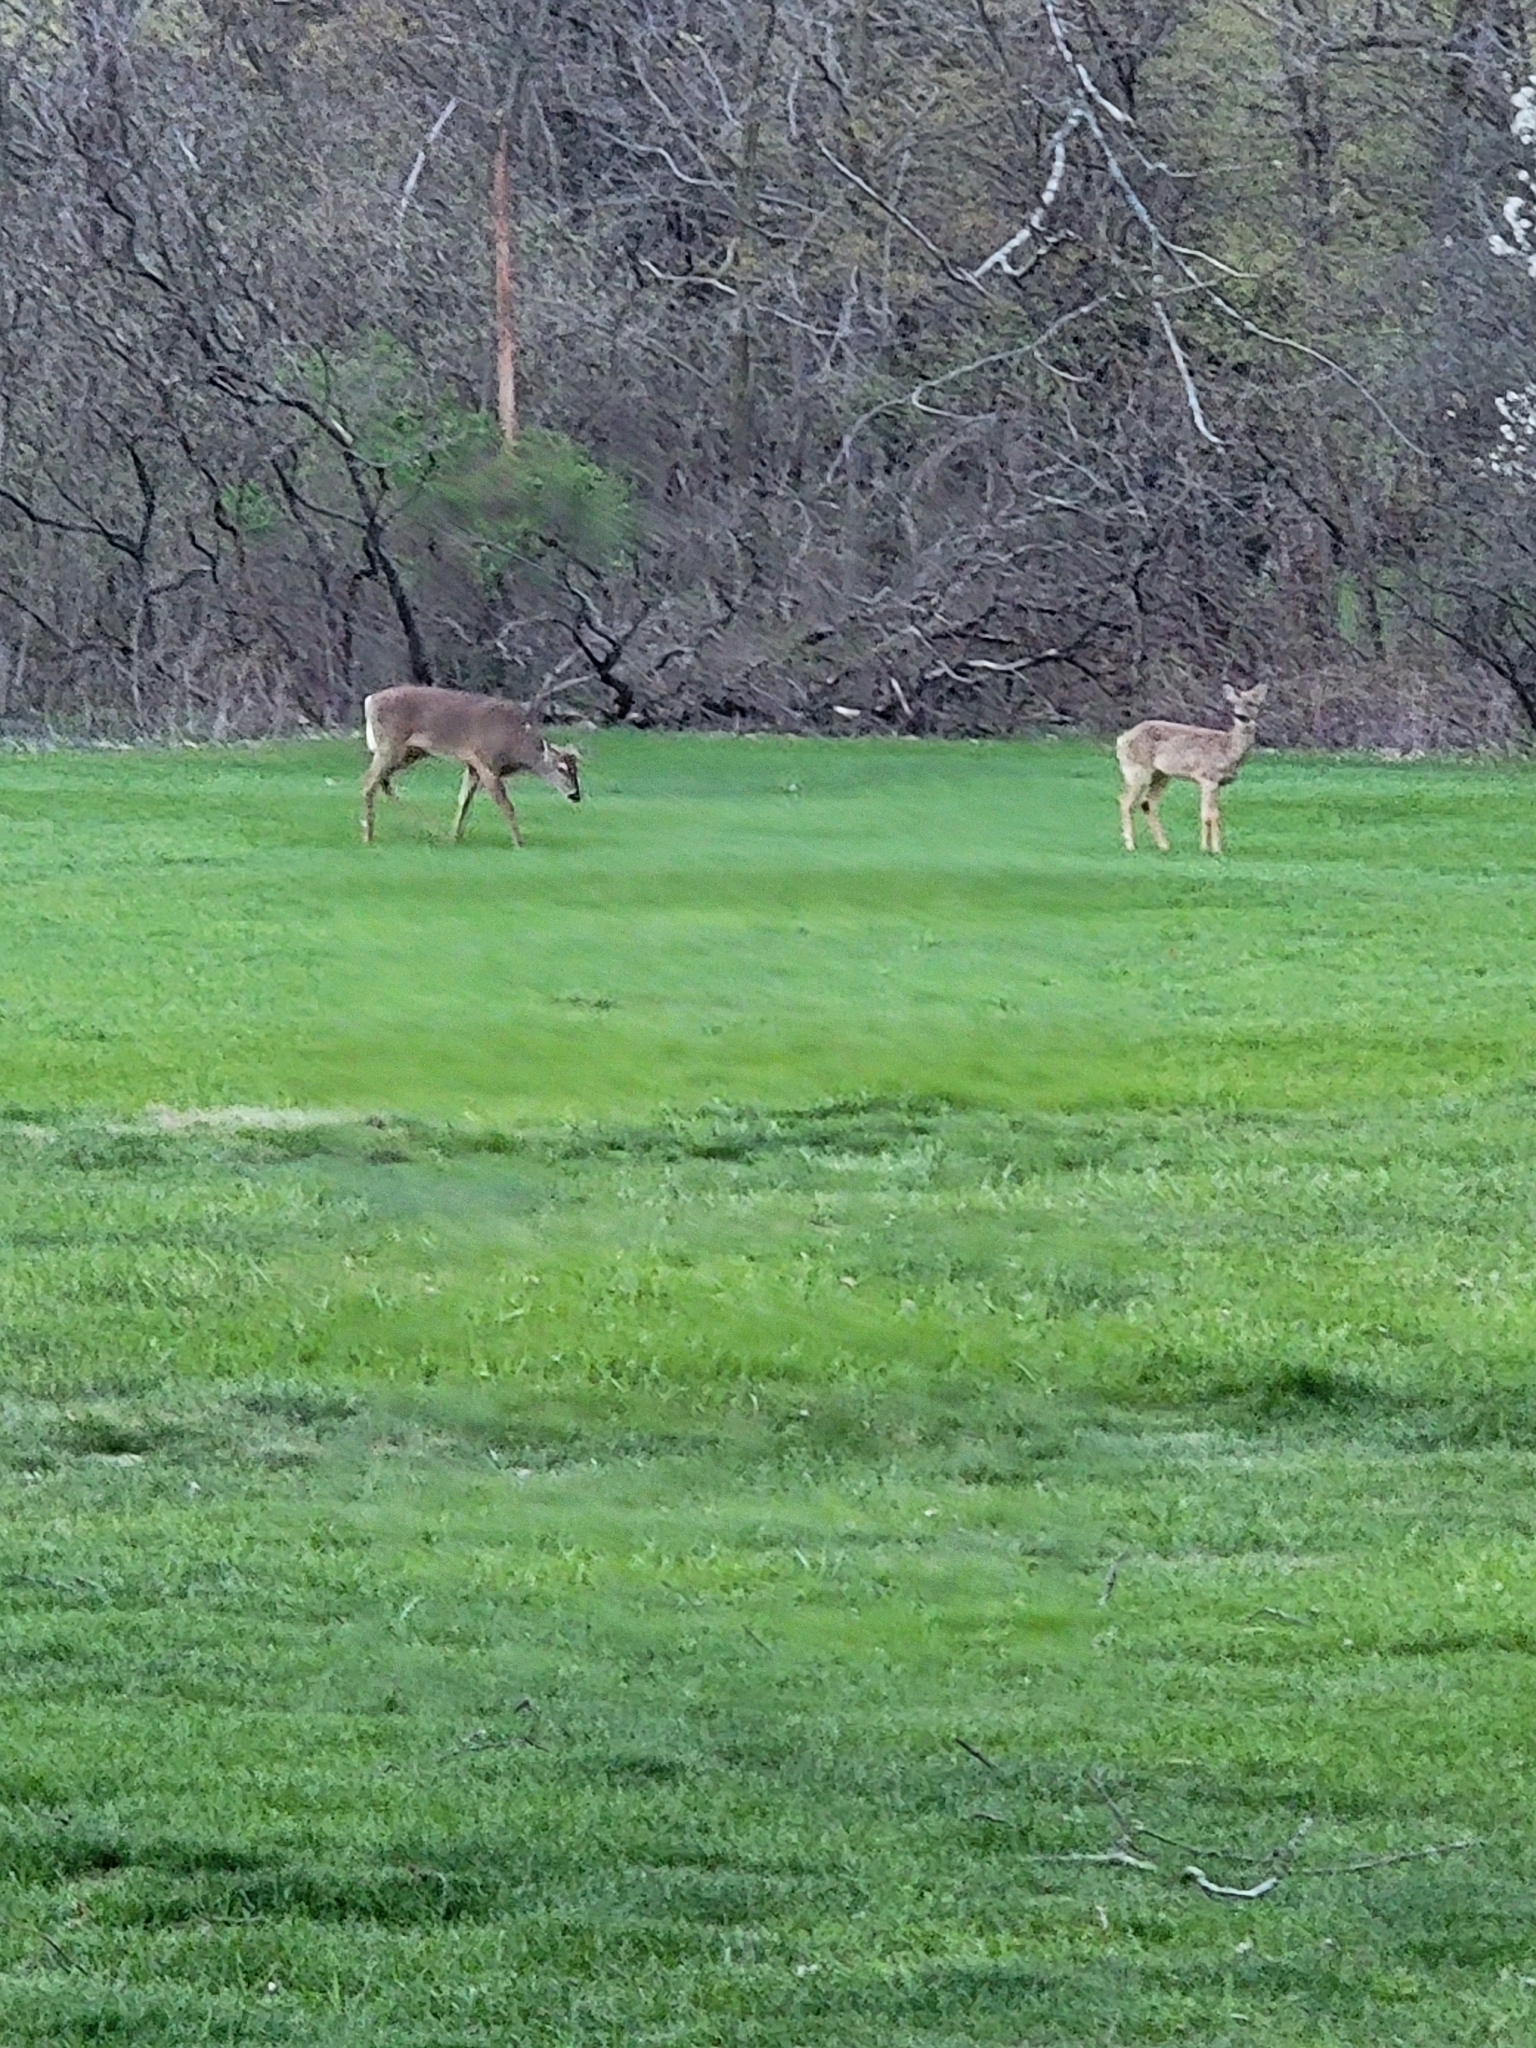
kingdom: Animalia
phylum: Chordata
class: Mammalia
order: Artiodactyla
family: Cervidae
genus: Odocoileus
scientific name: Odocoileus virginianus
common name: White-tailed deer
